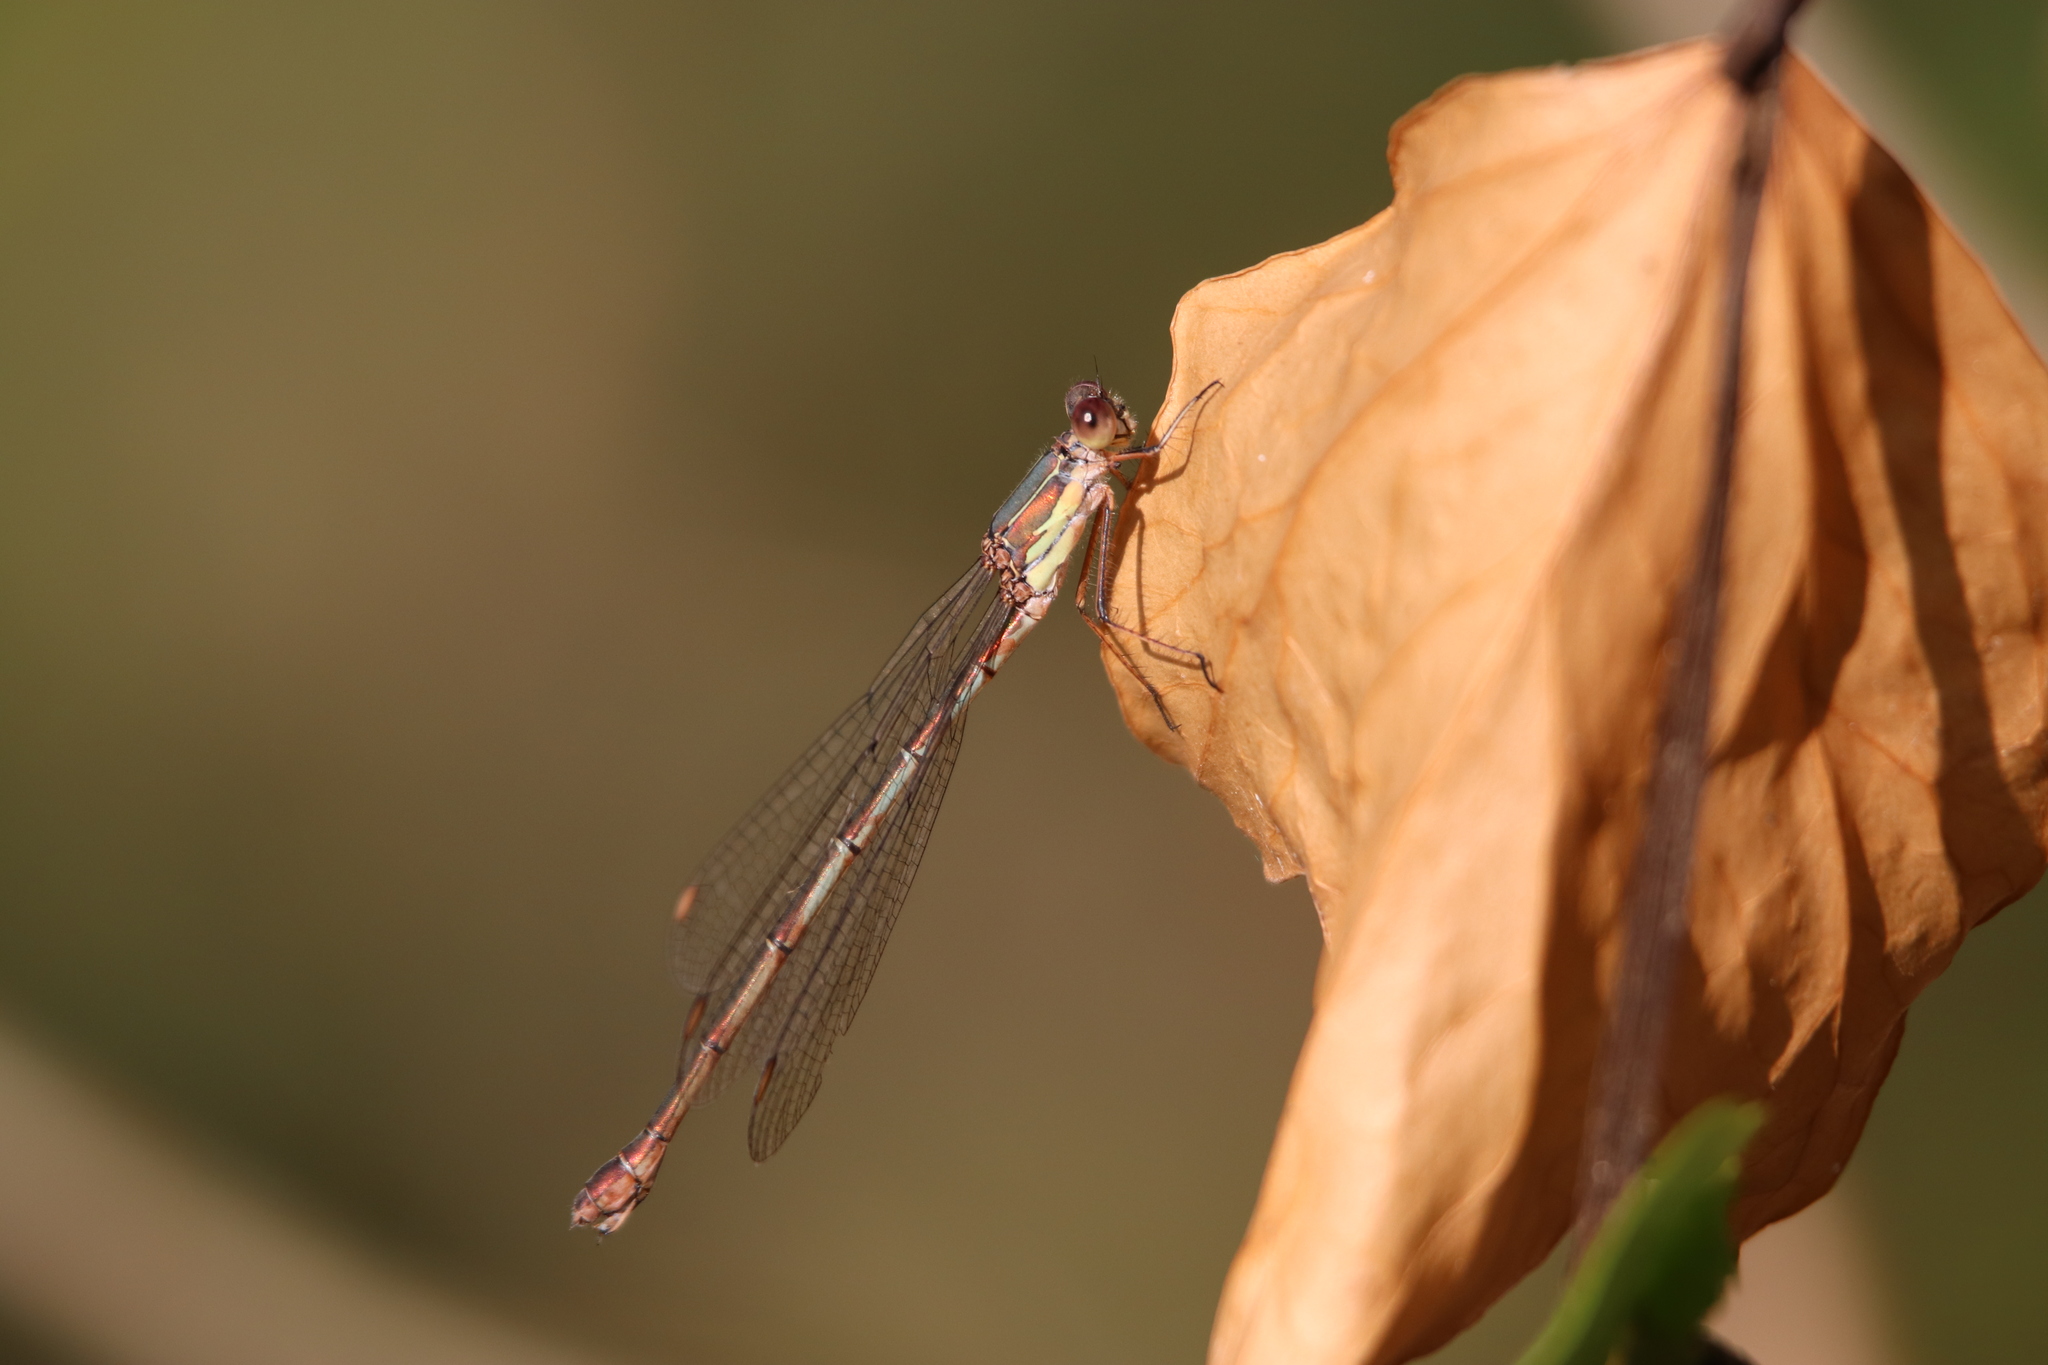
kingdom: Animalia
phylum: Arthropoda
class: Insecta
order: Odonata
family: Lestidae
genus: Chalcolestes
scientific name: Chalcolestes viridis
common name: Green emerald damselfly
